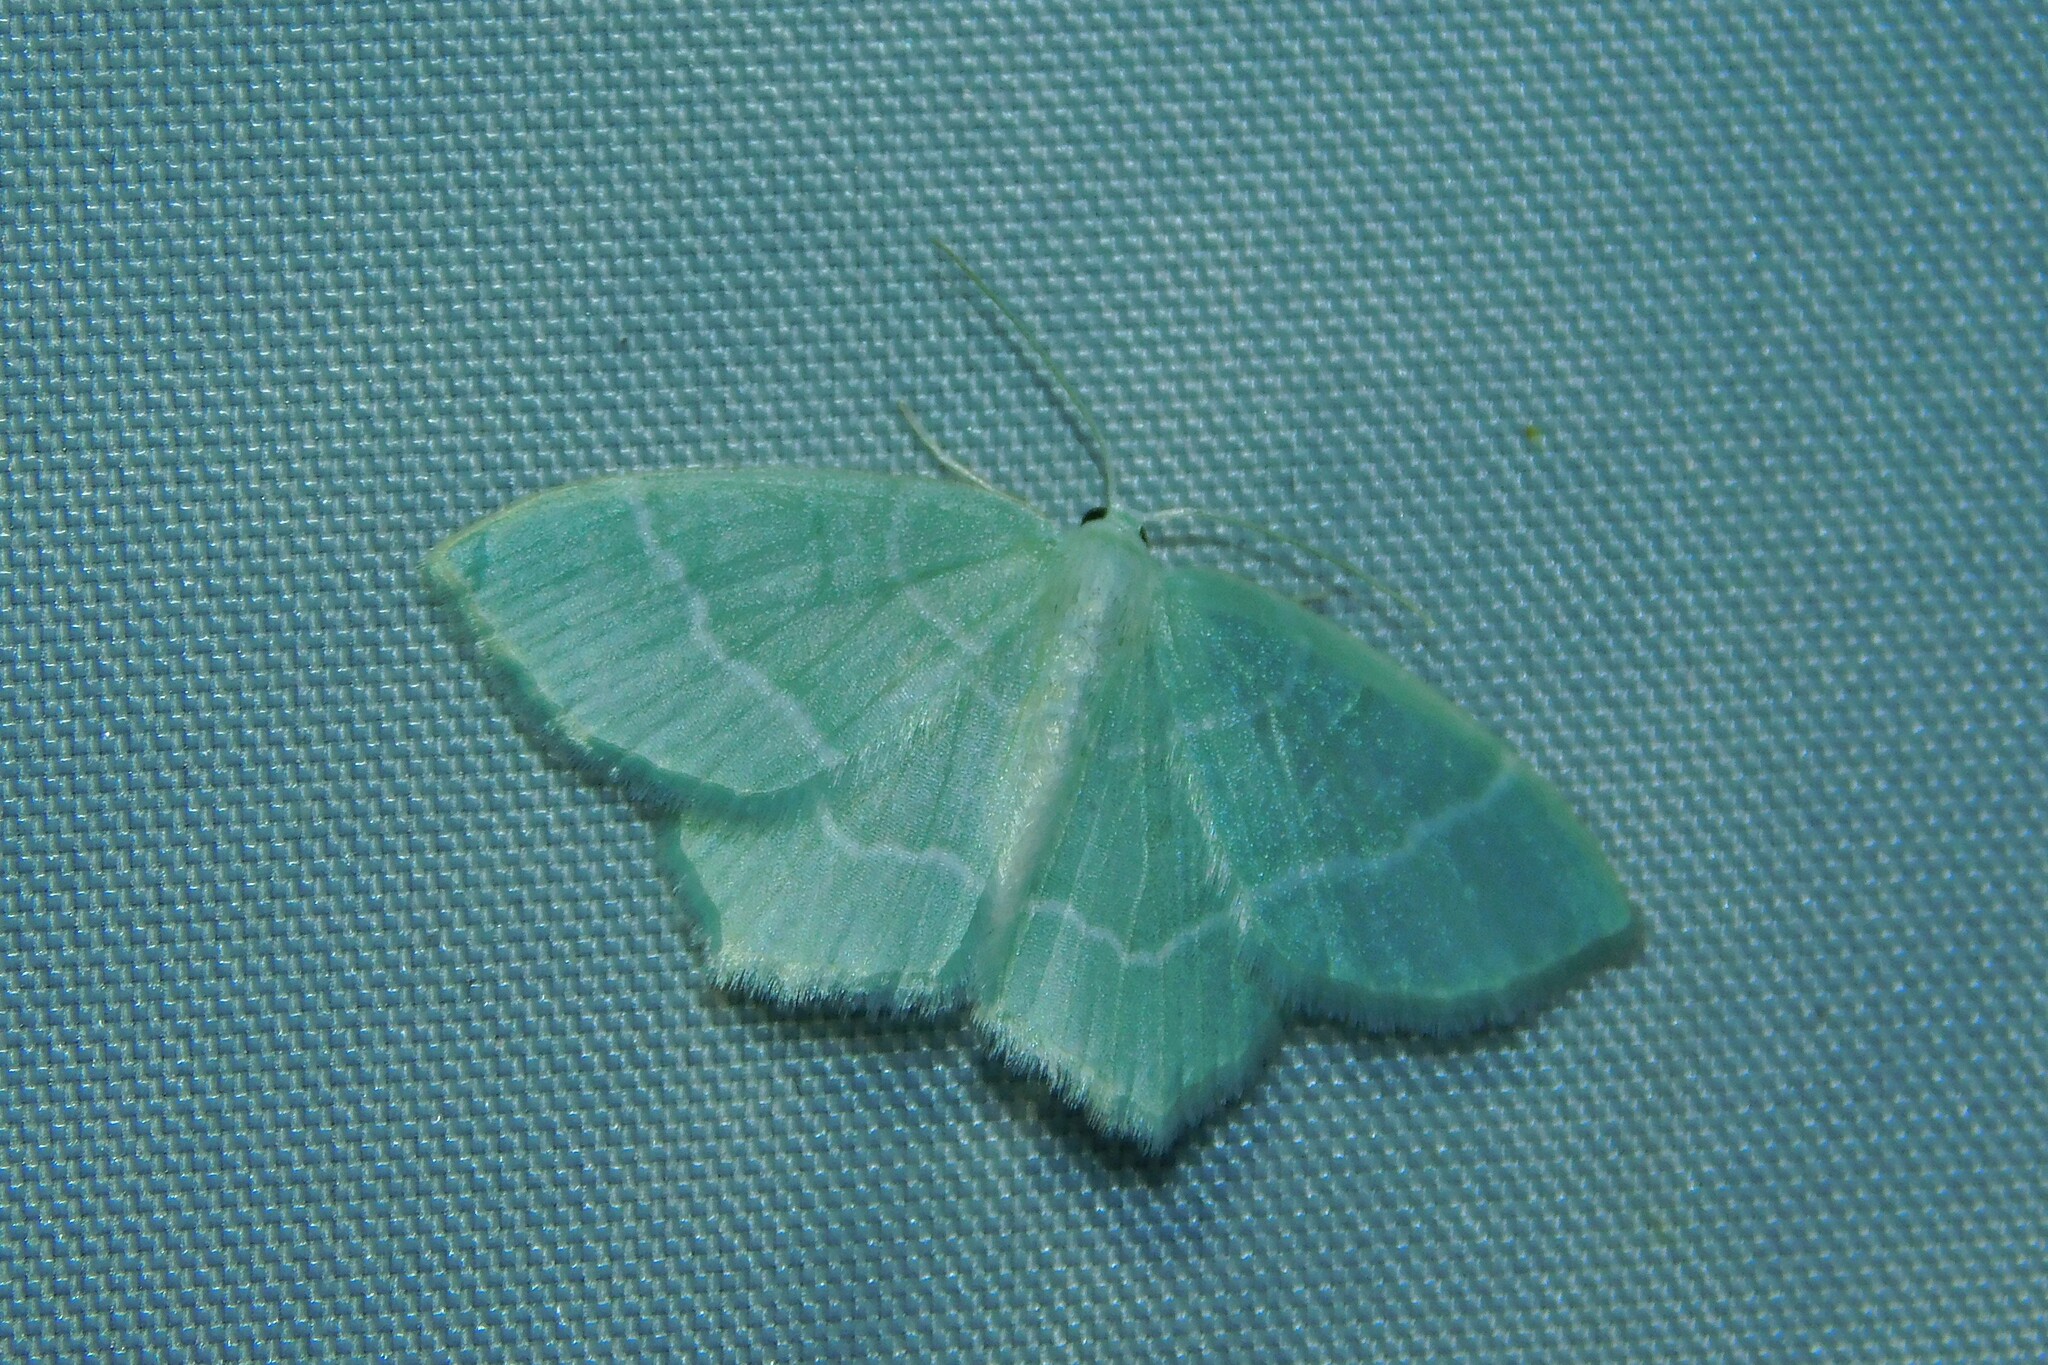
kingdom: Animalia
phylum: Arthropoda
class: Insecta
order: Lepidoptera
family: Geometridae
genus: Jodis
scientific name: Jodis lactearia
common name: Little emerald
